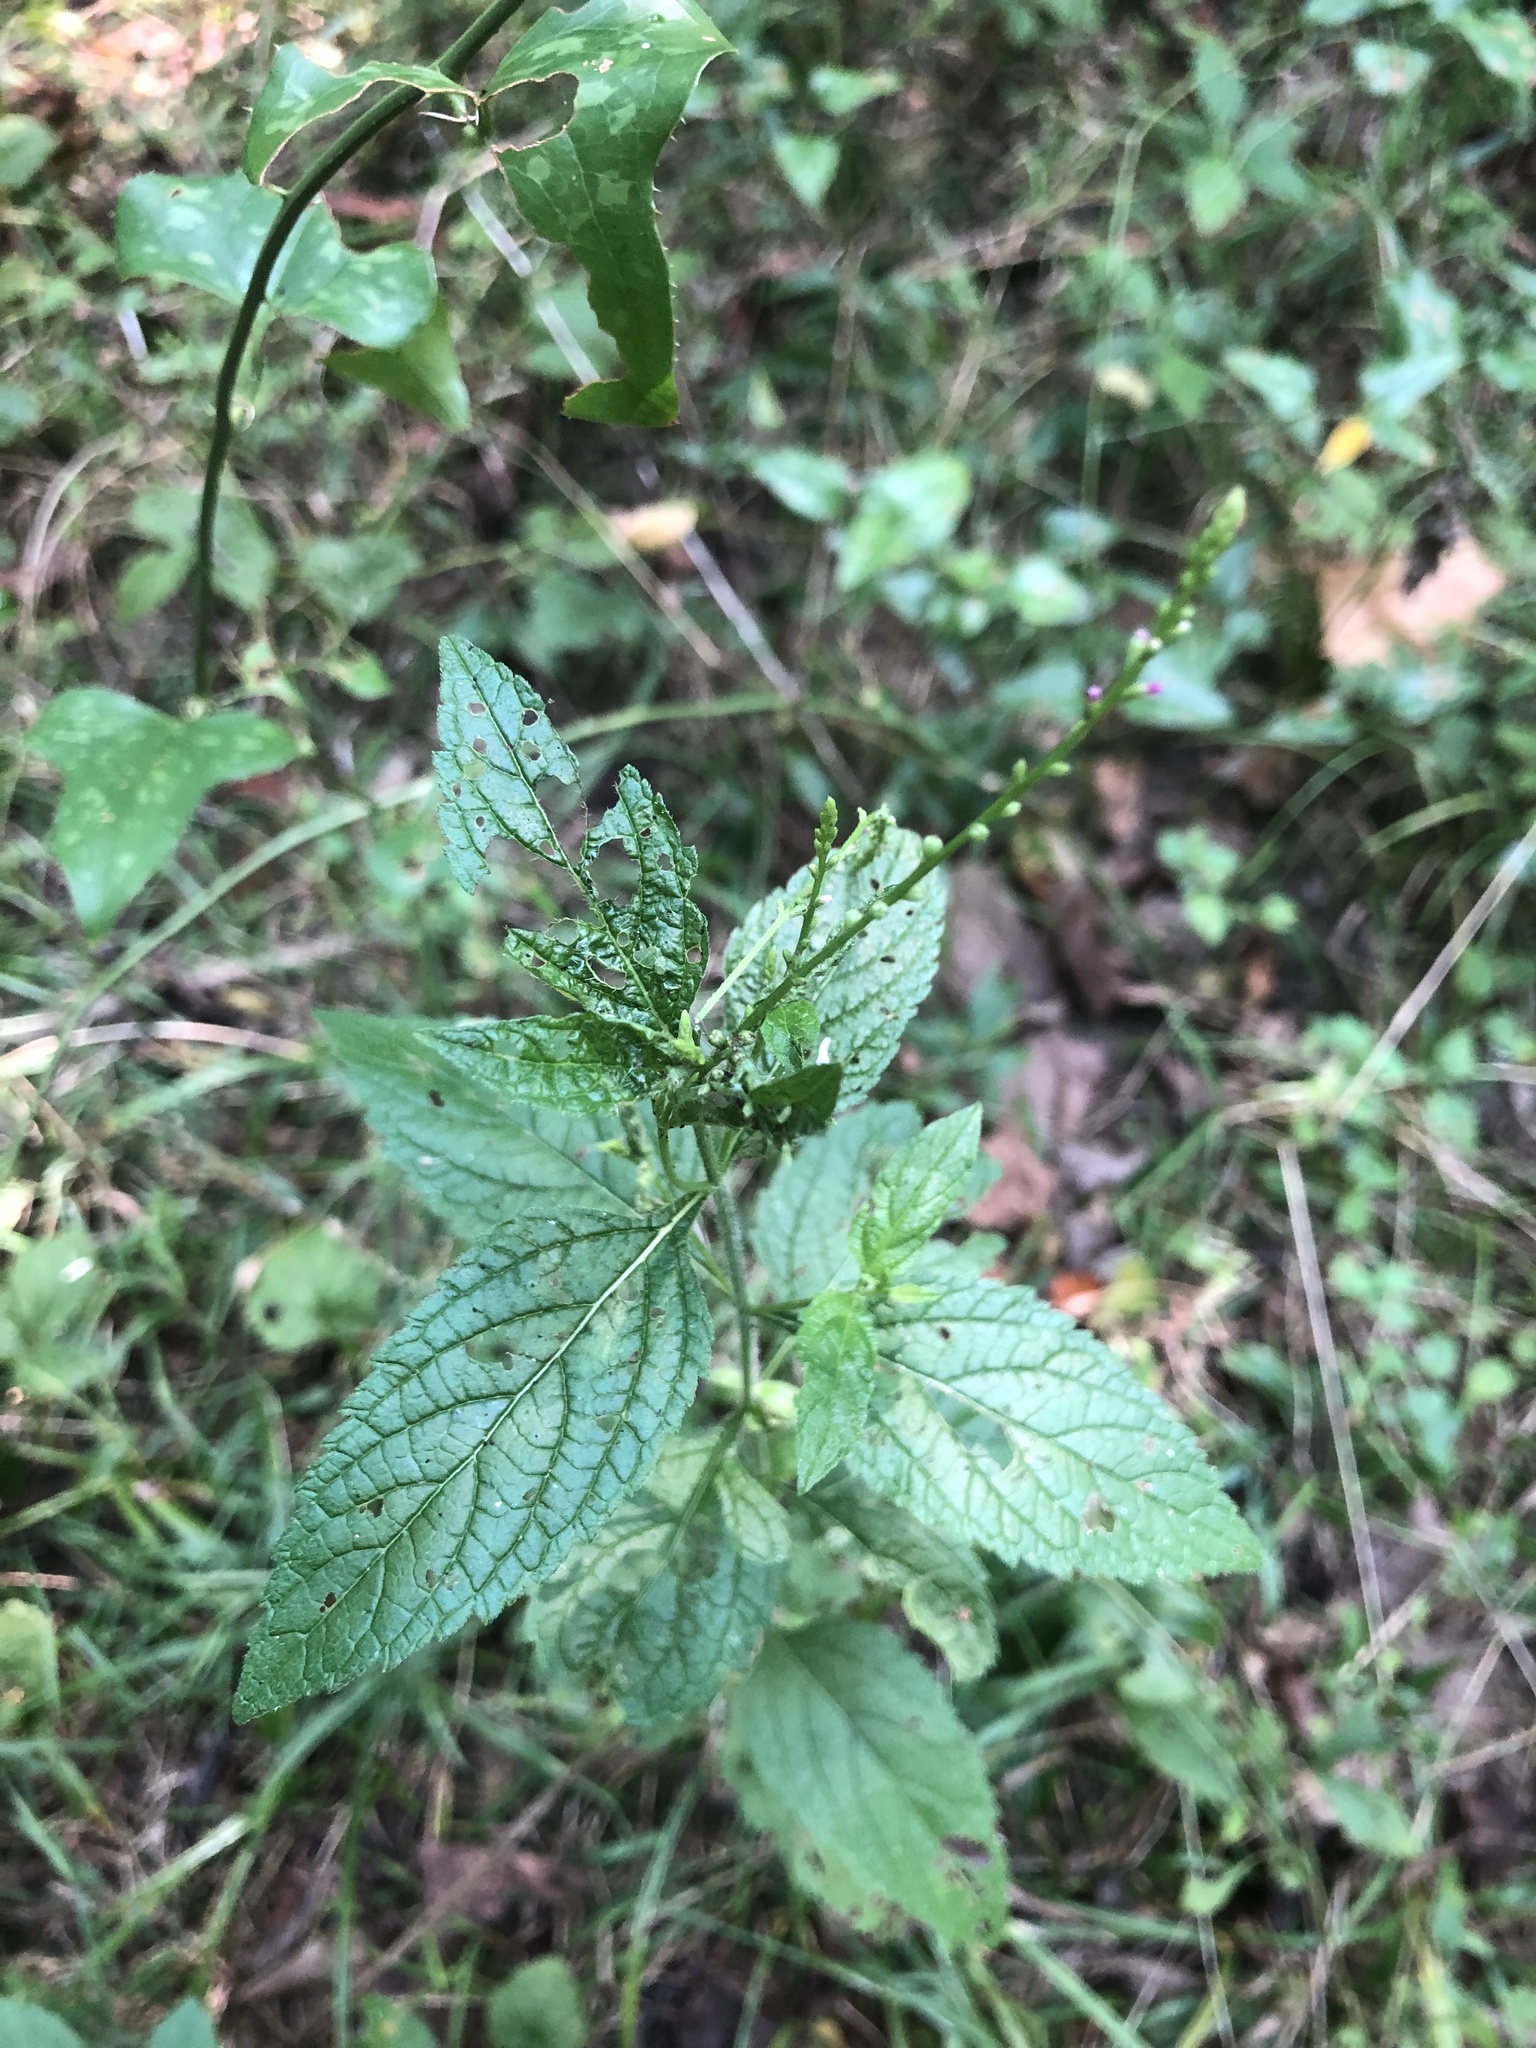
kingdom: Plantae
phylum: Tracheophyta
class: Magnoliopsida
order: Lamiales
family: Verbenaceae
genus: Verbena
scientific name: Verbena urticifolia
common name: Nettle-leaved vervain
